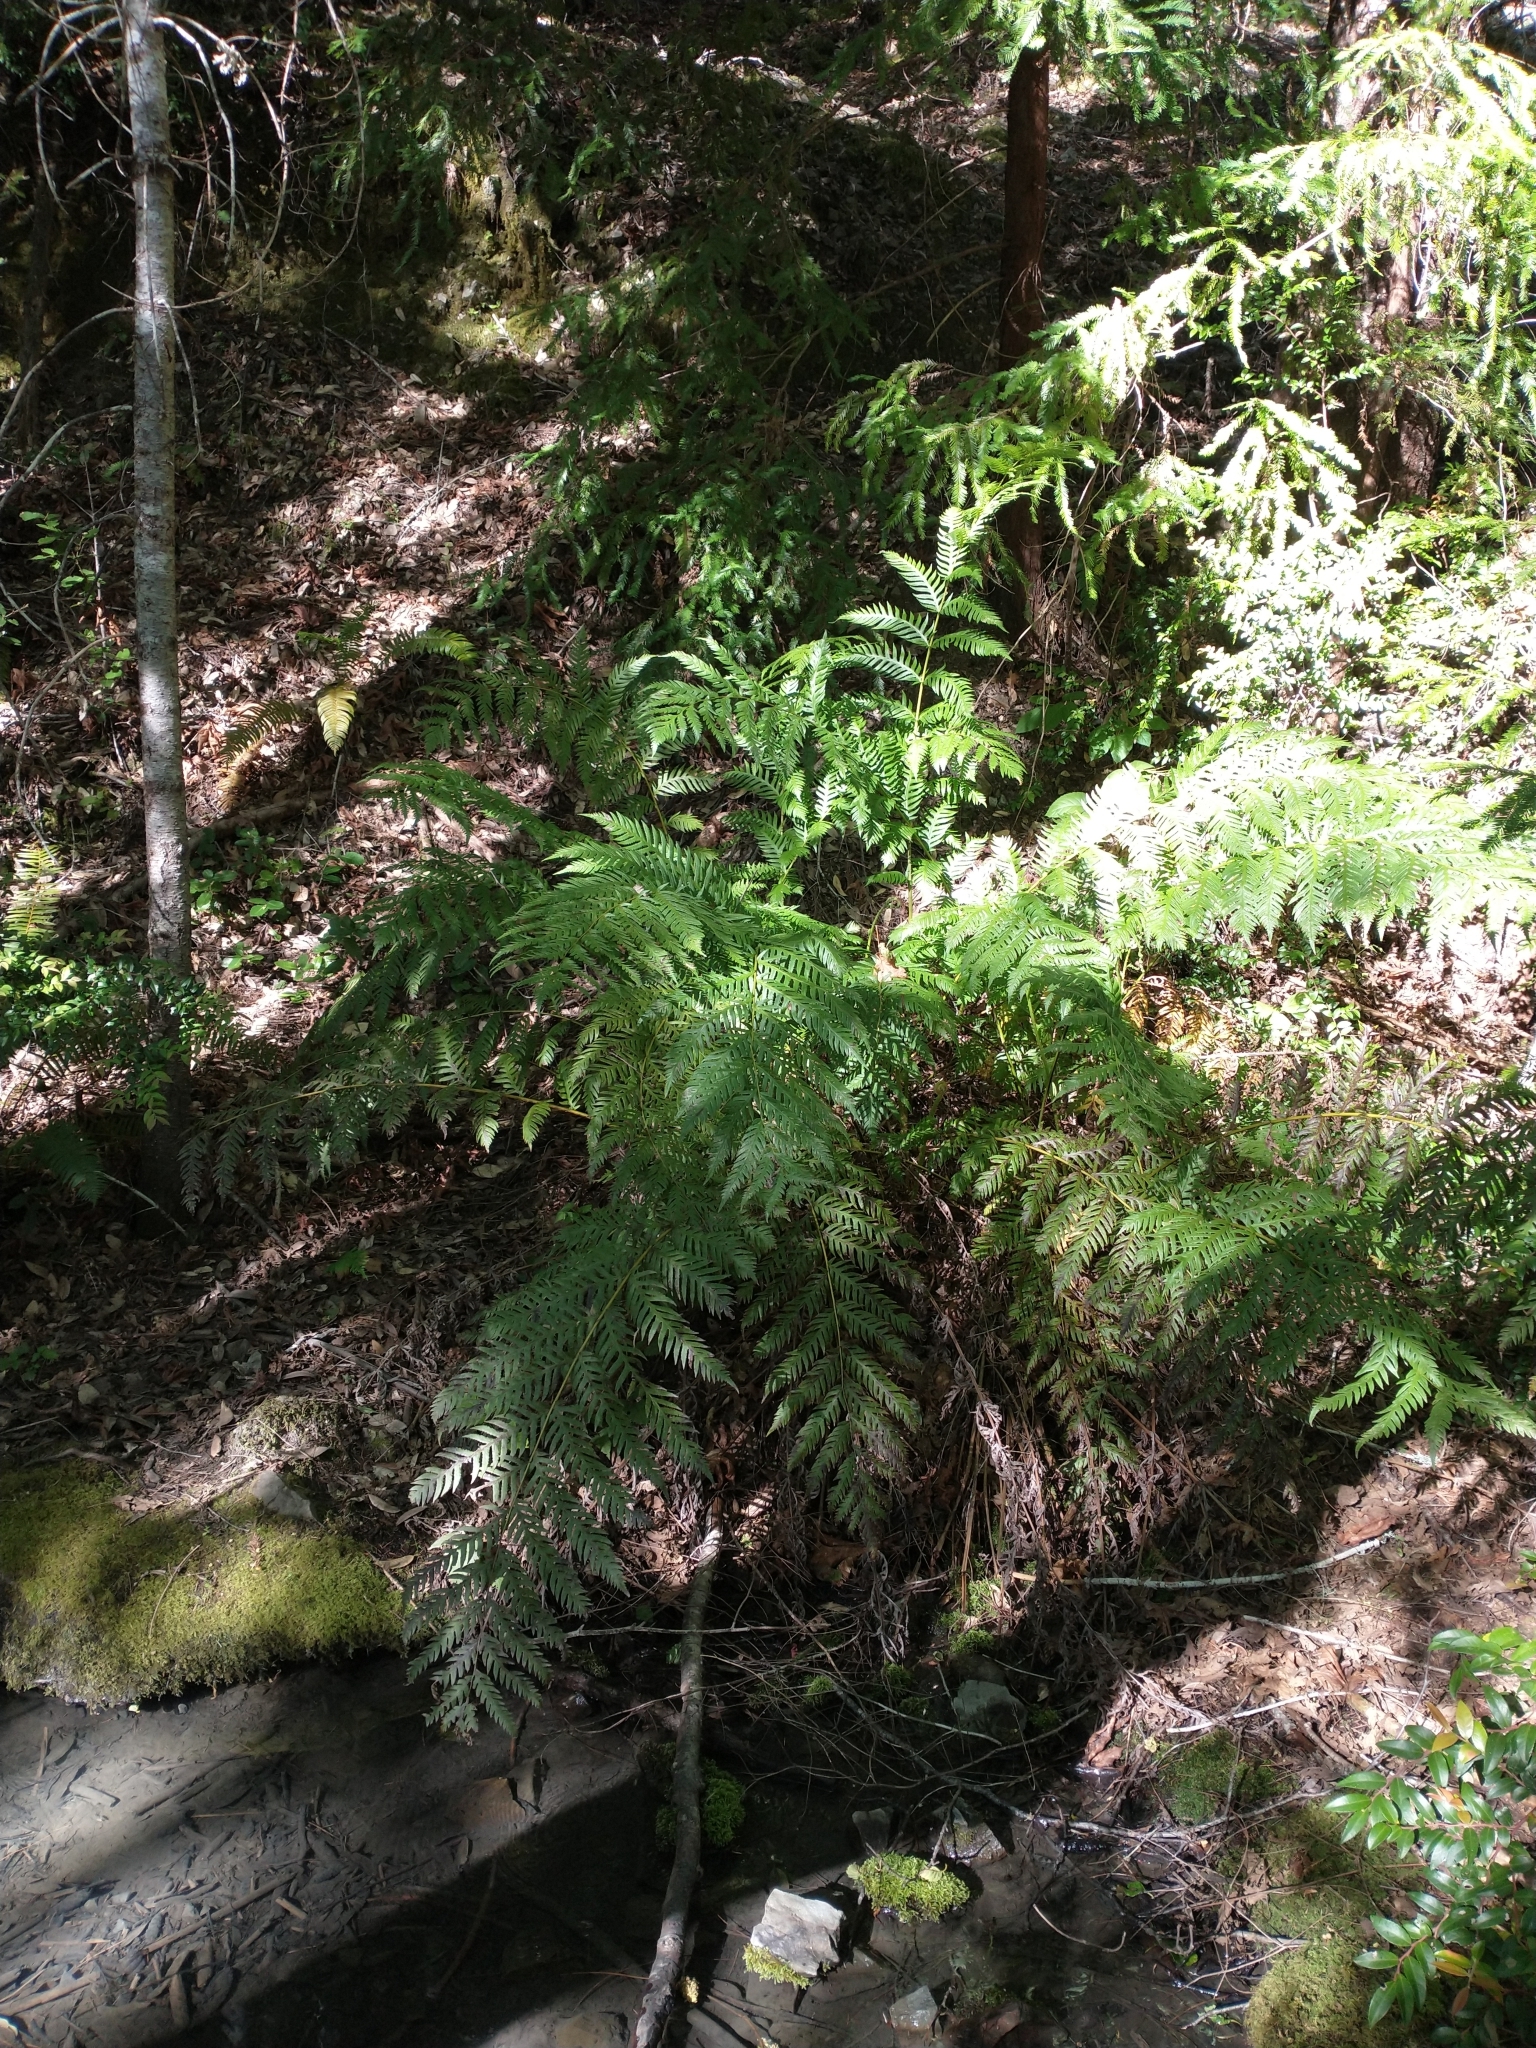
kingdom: Plantae
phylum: Tracheophyta
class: Polypodiopsida
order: Polypodiales
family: Blechnaceae
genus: Woodwardia
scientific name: Woodwardia fimbriata
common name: Giant chain fern
